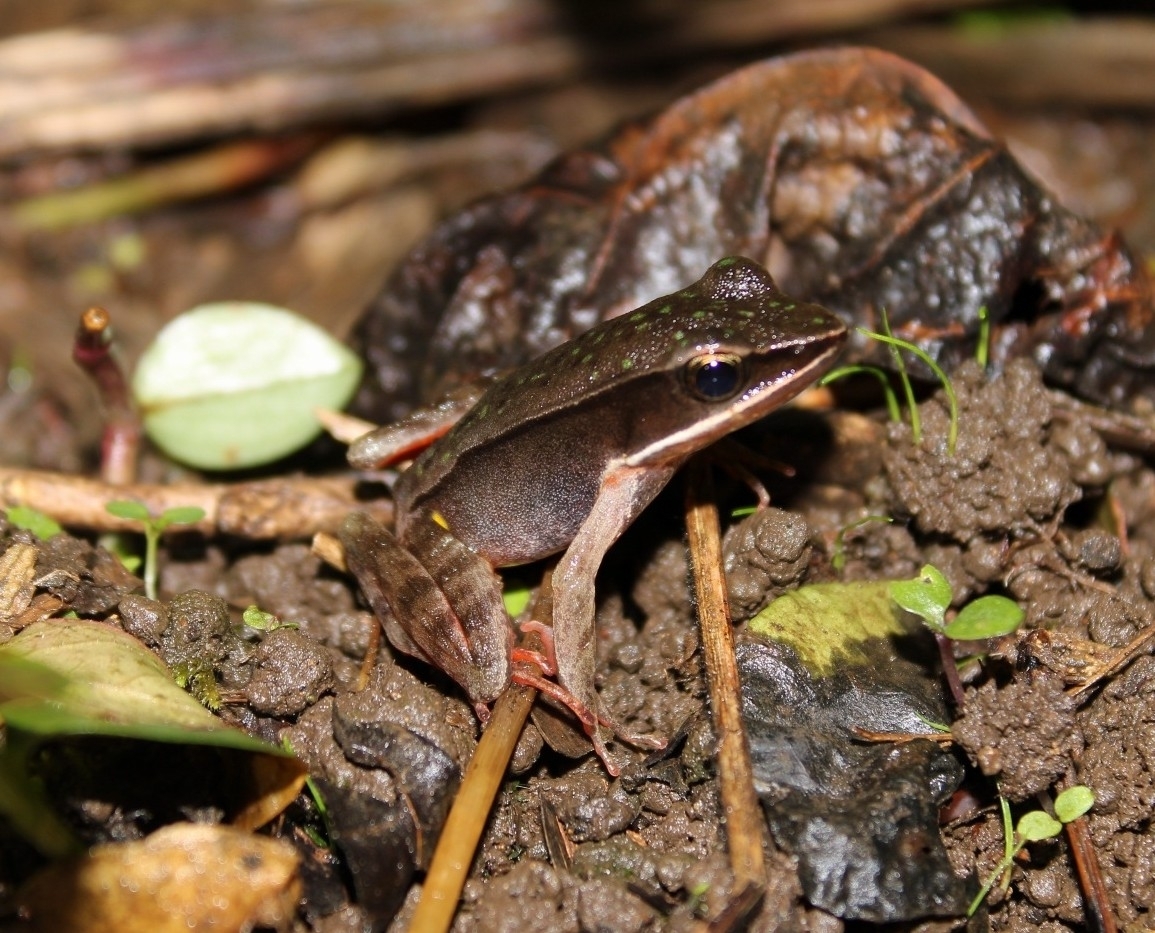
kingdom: Animalia
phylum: Chordata
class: Amphibia
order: Anura
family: Ranidae
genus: Lithobates
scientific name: Lithobates warszewitschii
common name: Warszewitsch's frog
